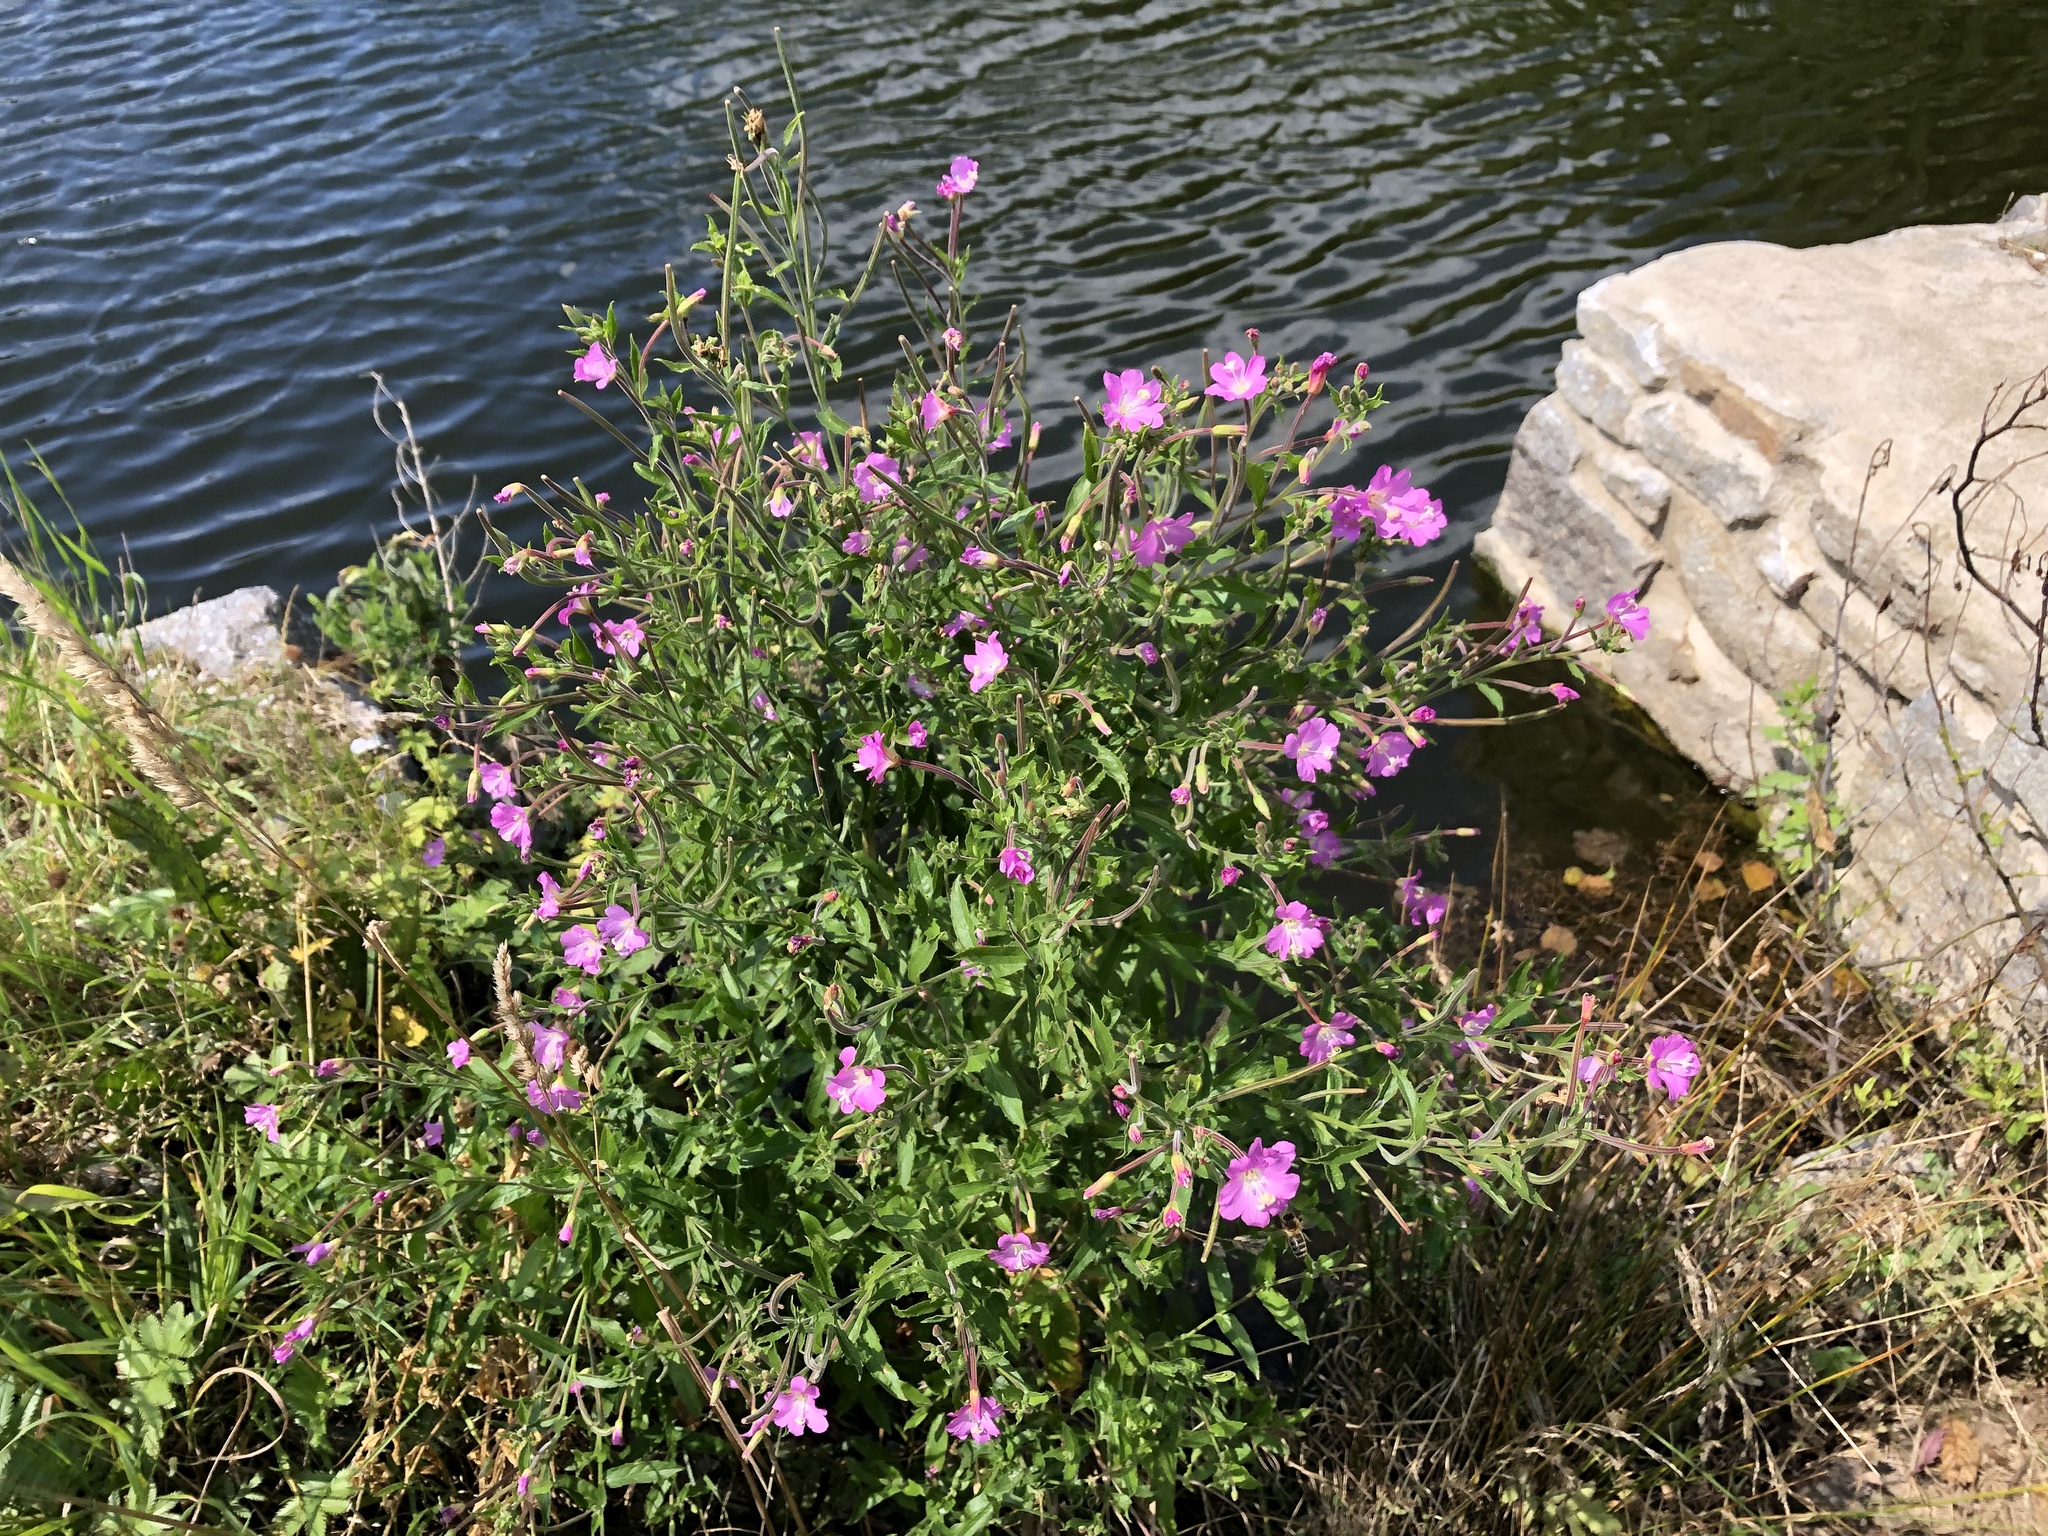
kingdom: Plantae
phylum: Tracheophyta
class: Magnoliopsida
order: Myrtales
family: Onagraceae
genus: Epilobium
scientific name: Epilobium hirsutum
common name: Great willowherb
